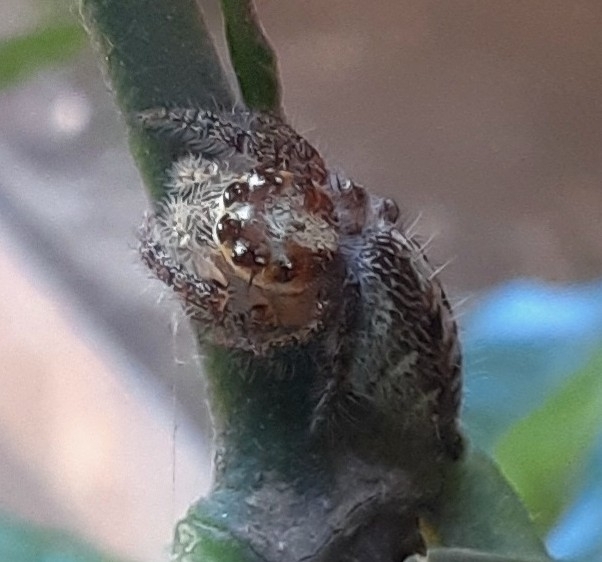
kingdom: Animalia
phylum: Arthropoda
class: Arachnida
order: Araneae
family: Salticidae
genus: Hyllus
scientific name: Hyllus semicupreus
